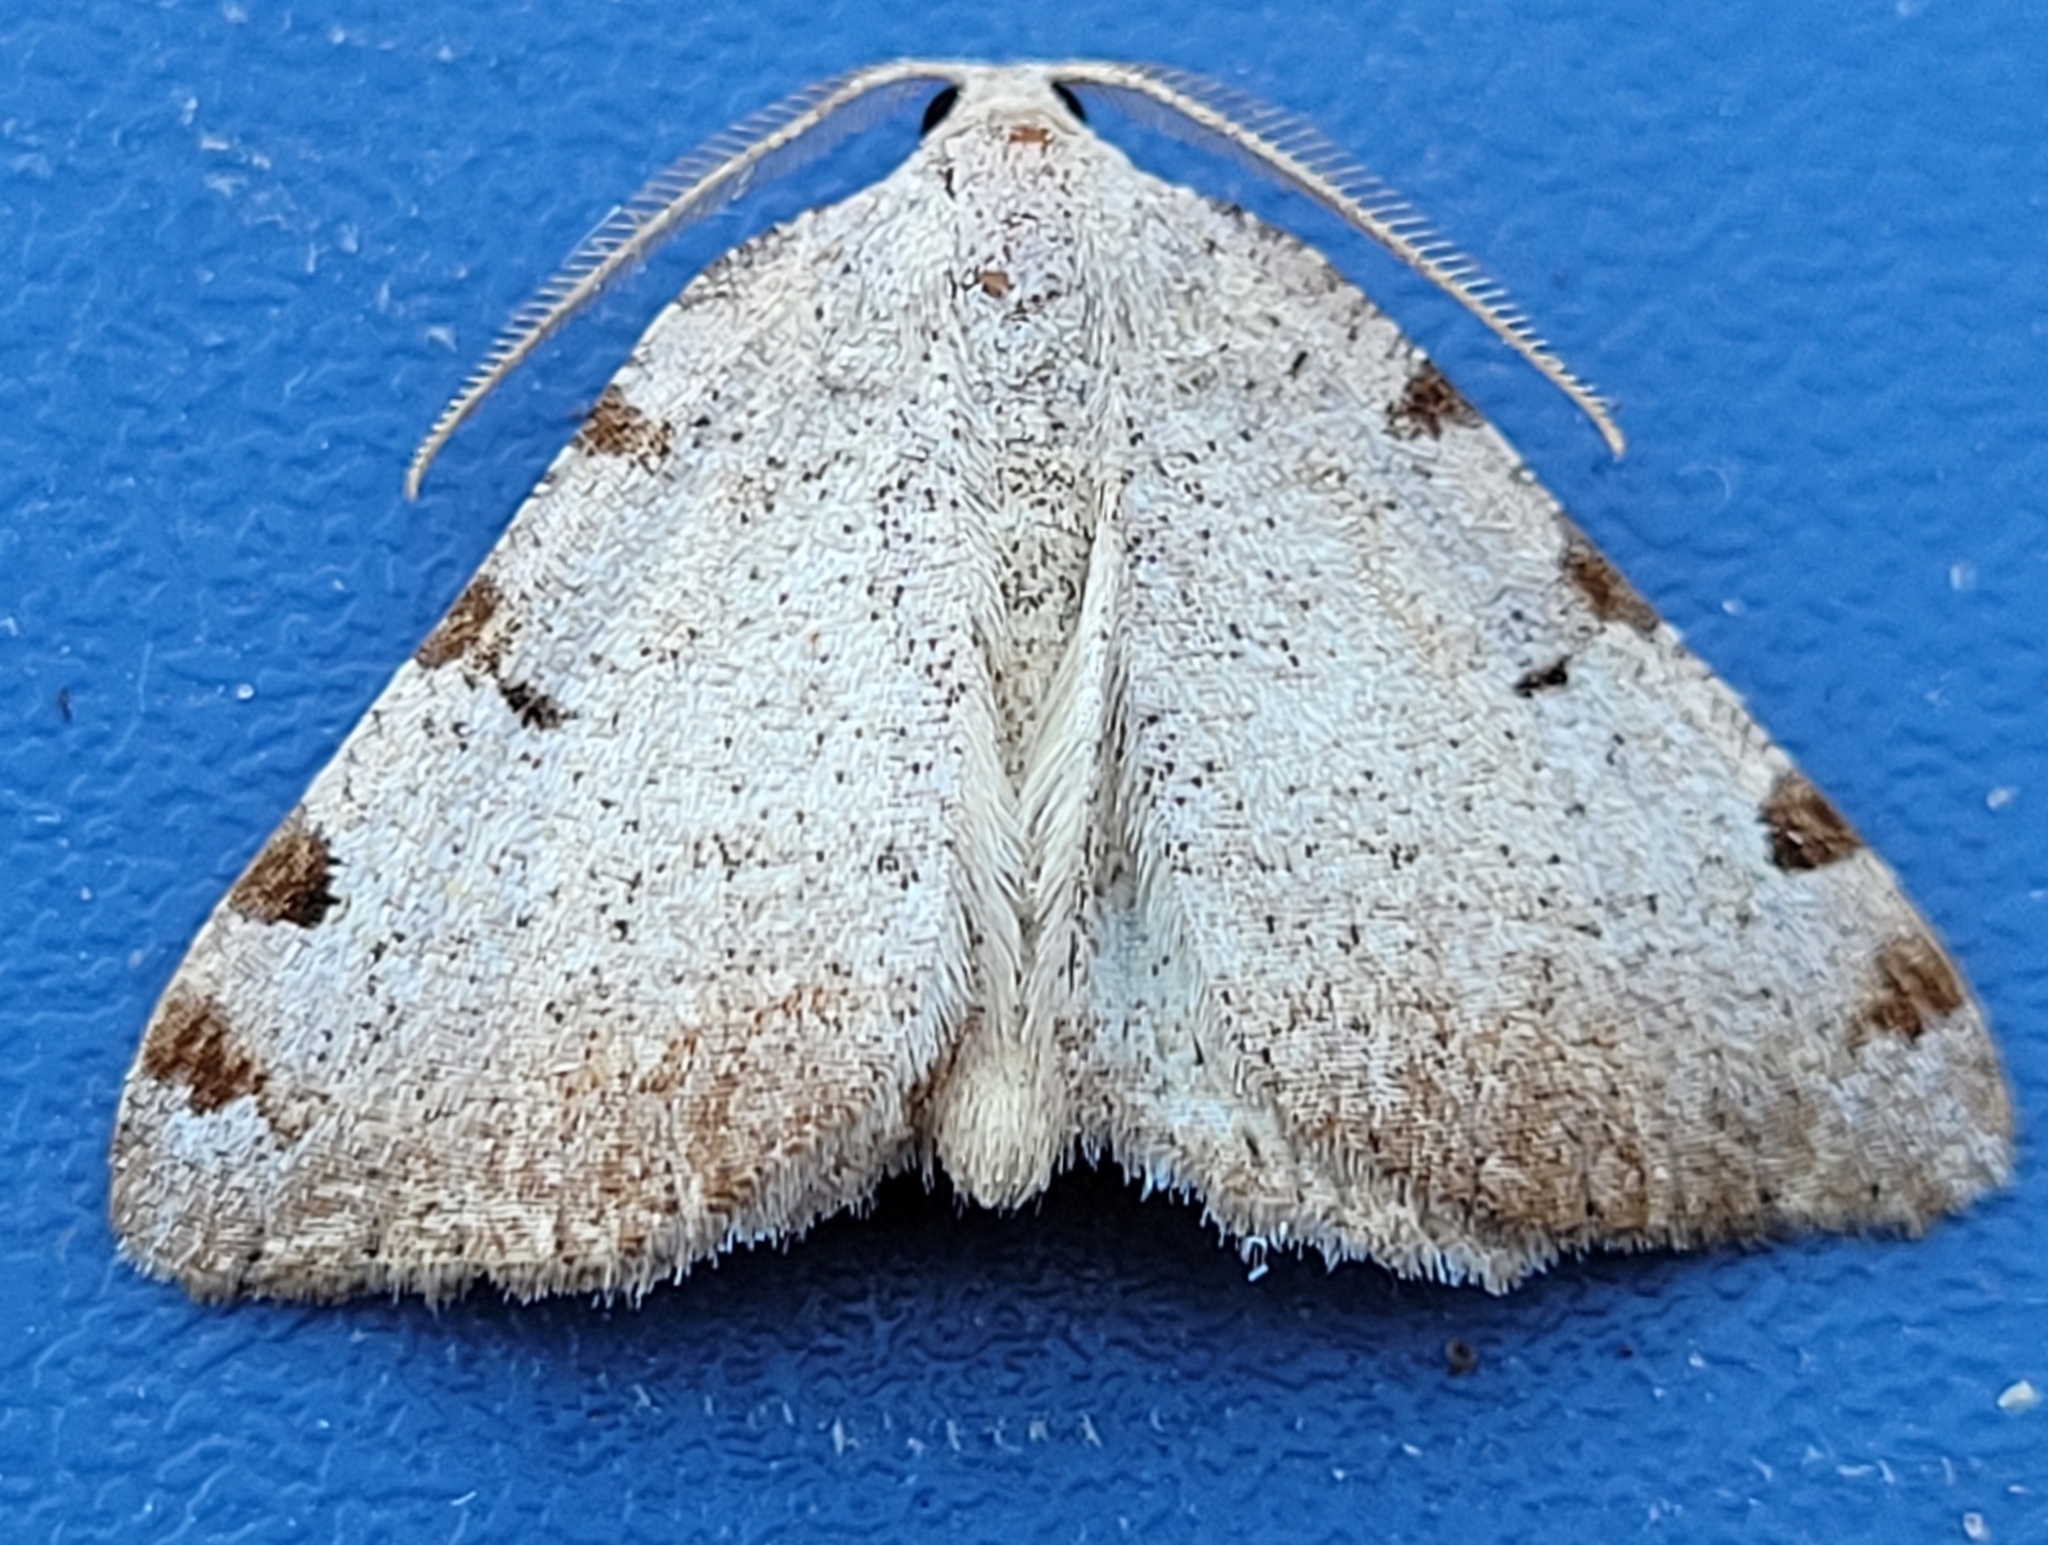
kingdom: Animalia
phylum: Arthropoda
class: Insecta
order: Lepidoptera
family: Geometridae
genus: Macaria
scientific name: Macaria coortaria
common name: Four-spotted granite
